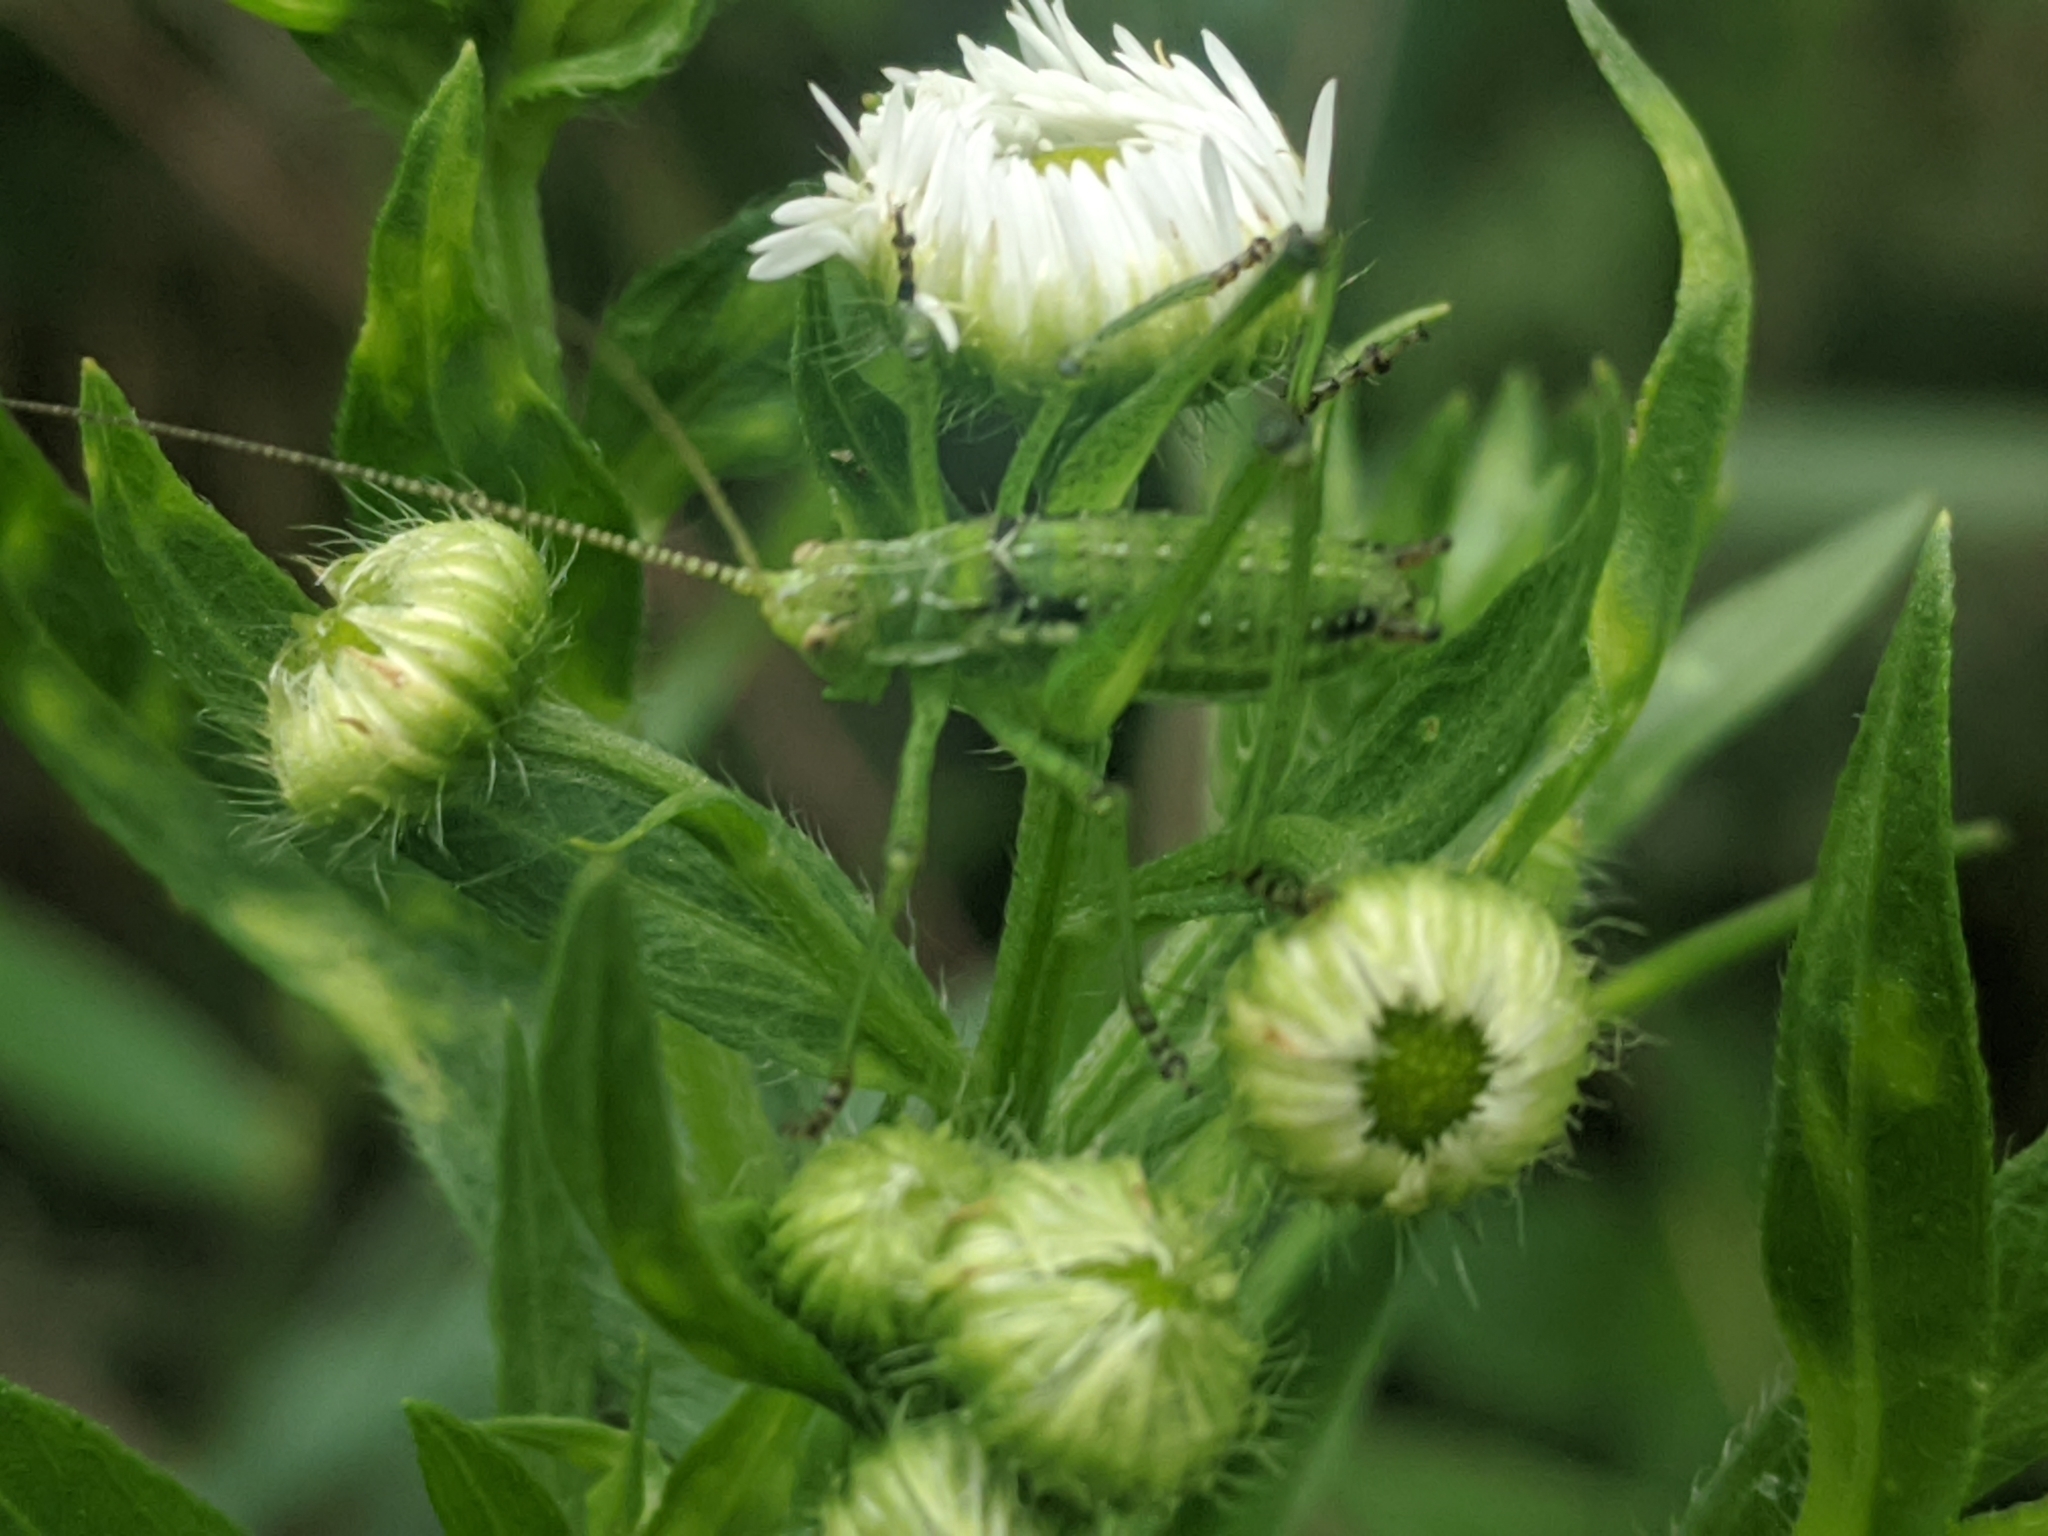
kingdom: Animalia
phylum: Arthropoda
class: Insecta
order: Orthoptera
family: Tettigoniidae
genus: Leptophyes
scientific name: Leptophyes albovittata
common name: Striped bush-cricket
